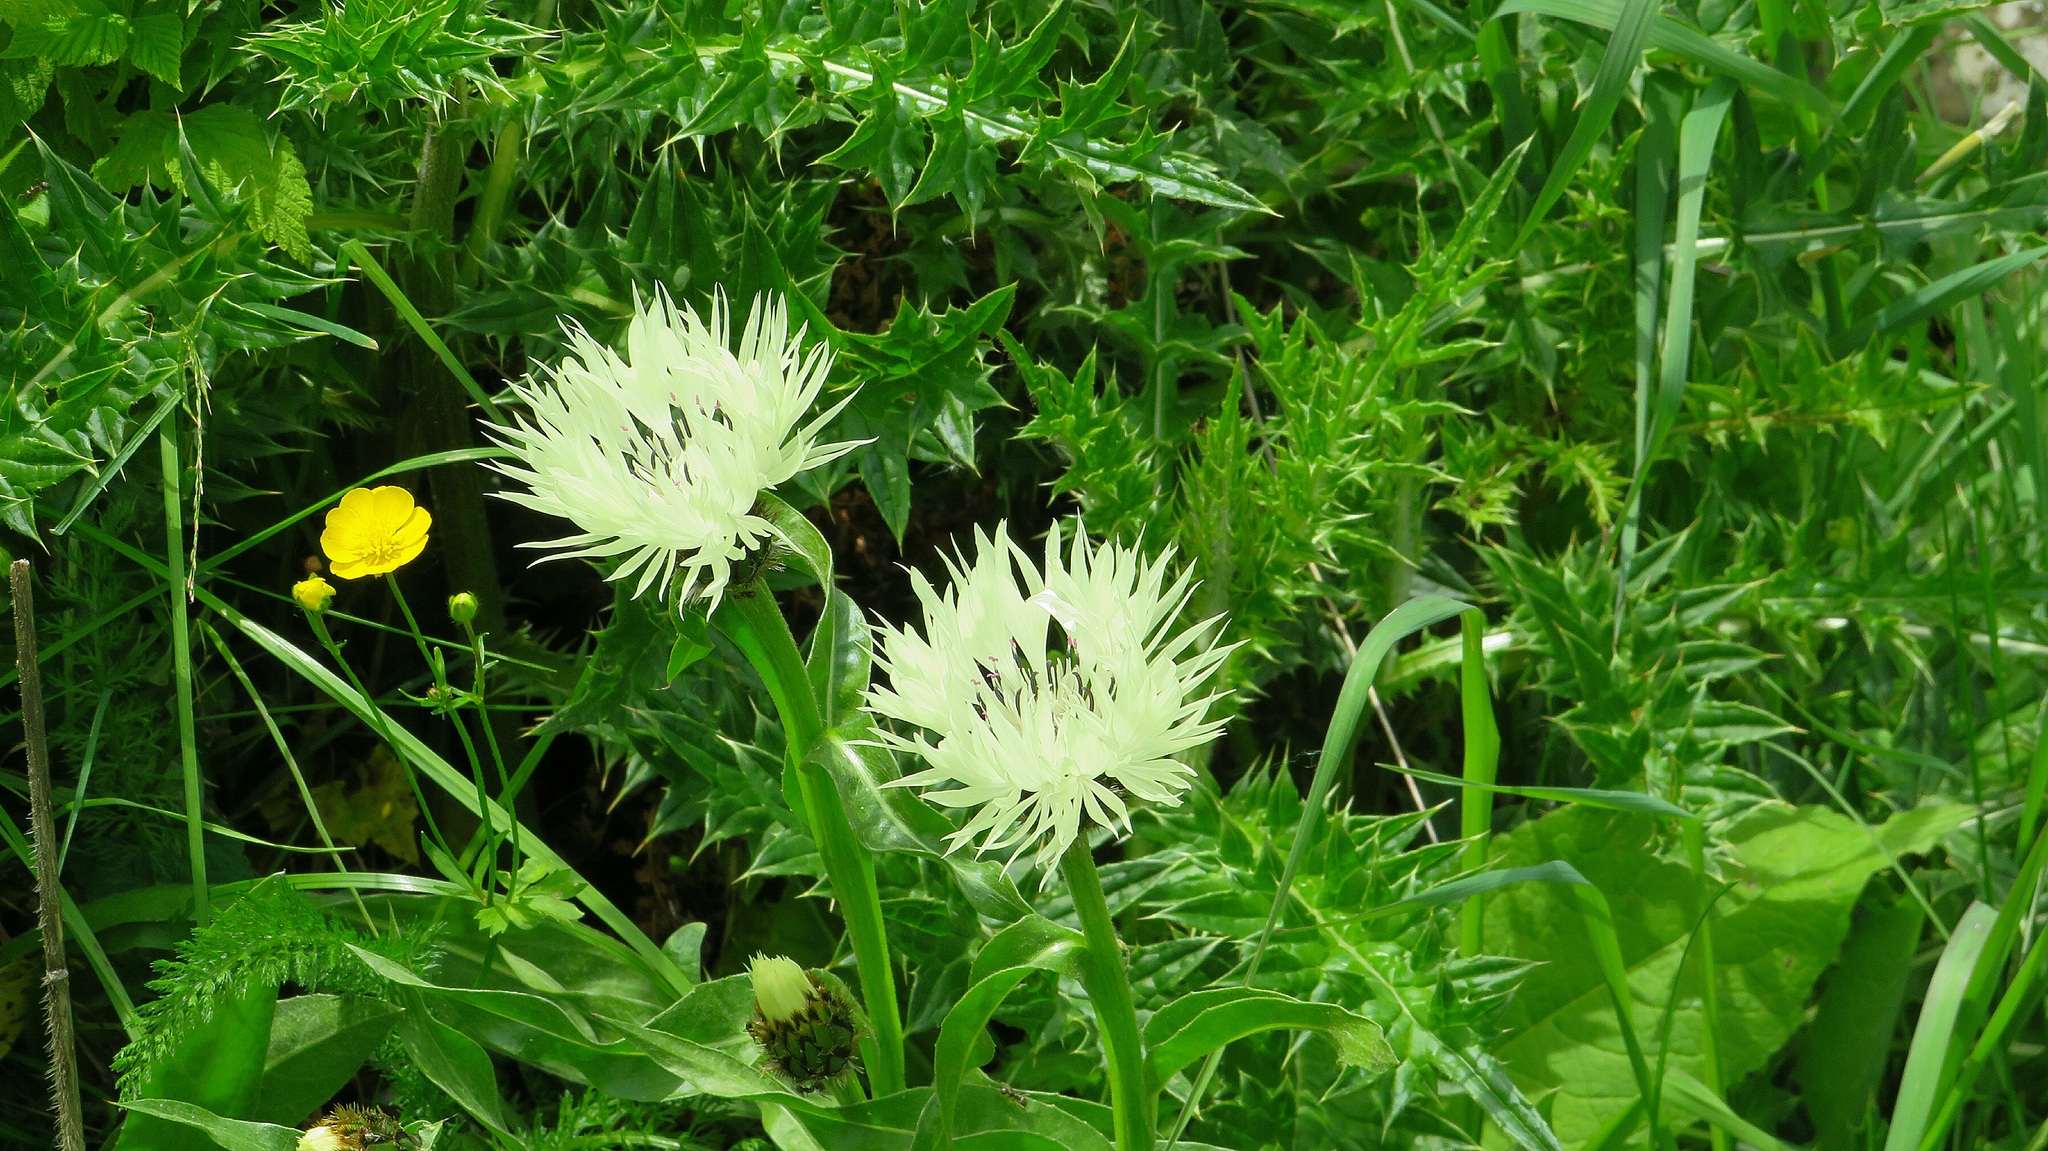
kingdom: Plantae
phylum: Tracheophyta
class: Magnoliopsida
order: Asterales
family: Asteraceae
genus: Centaurea
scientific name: Centaurea cheiranthifolia
